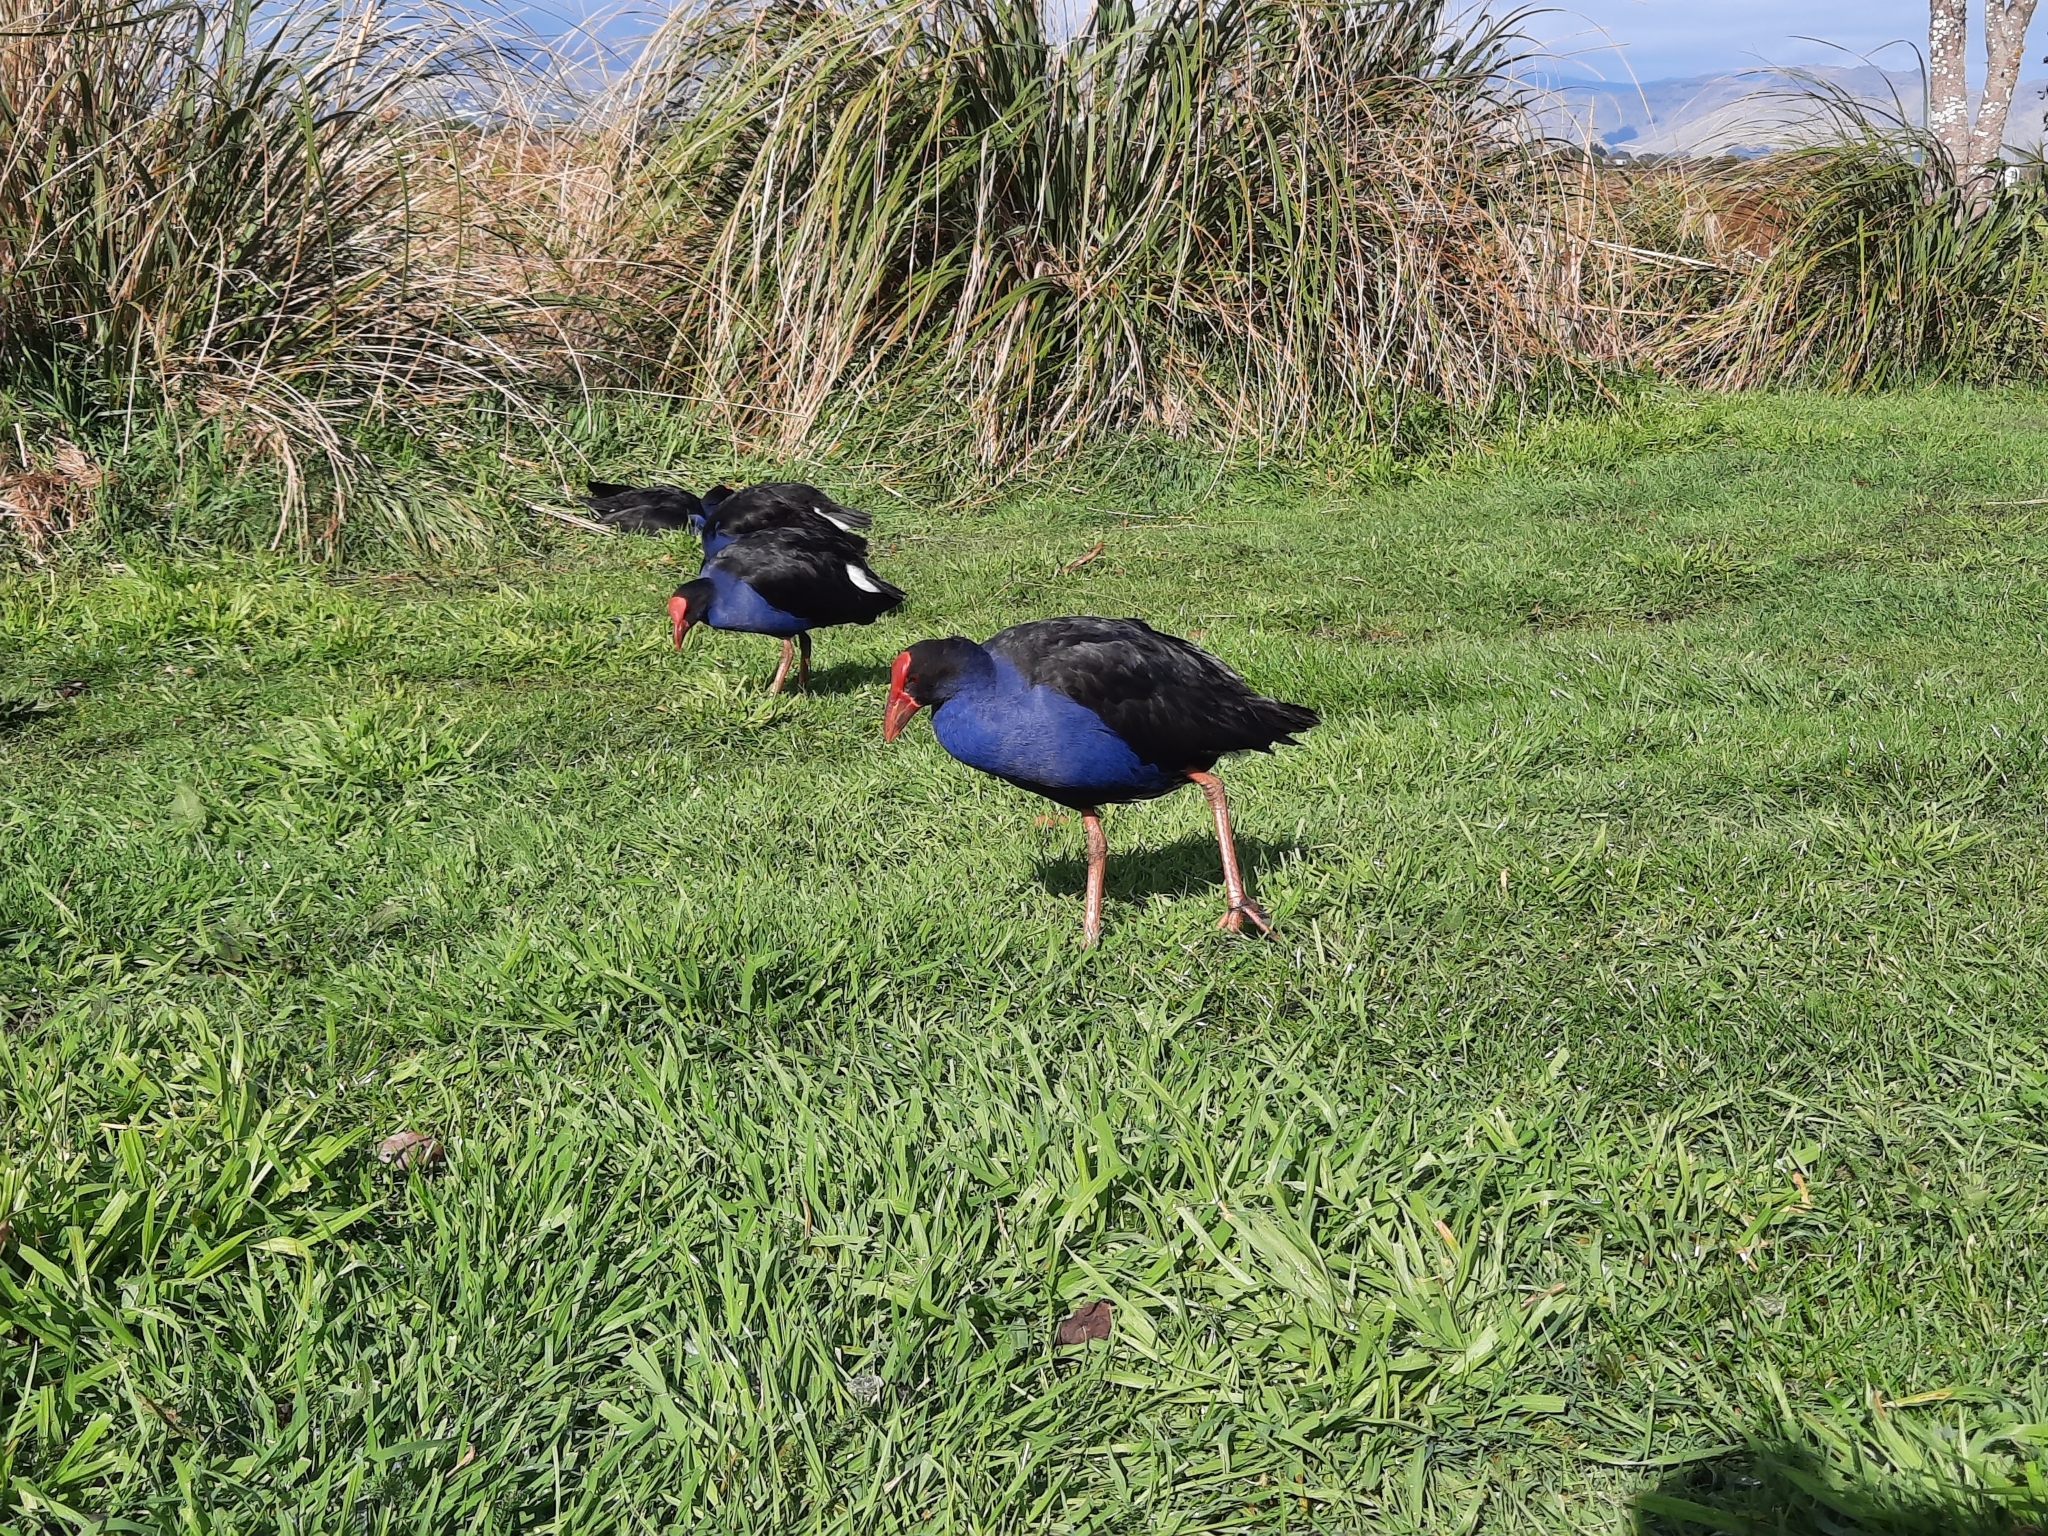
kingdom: Animalia
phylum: Chordata
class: Aves
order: Gruiformes
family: Rallidae
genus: Porphyrio
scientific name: Porphyrio melanotus
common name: Australasian swamphen
